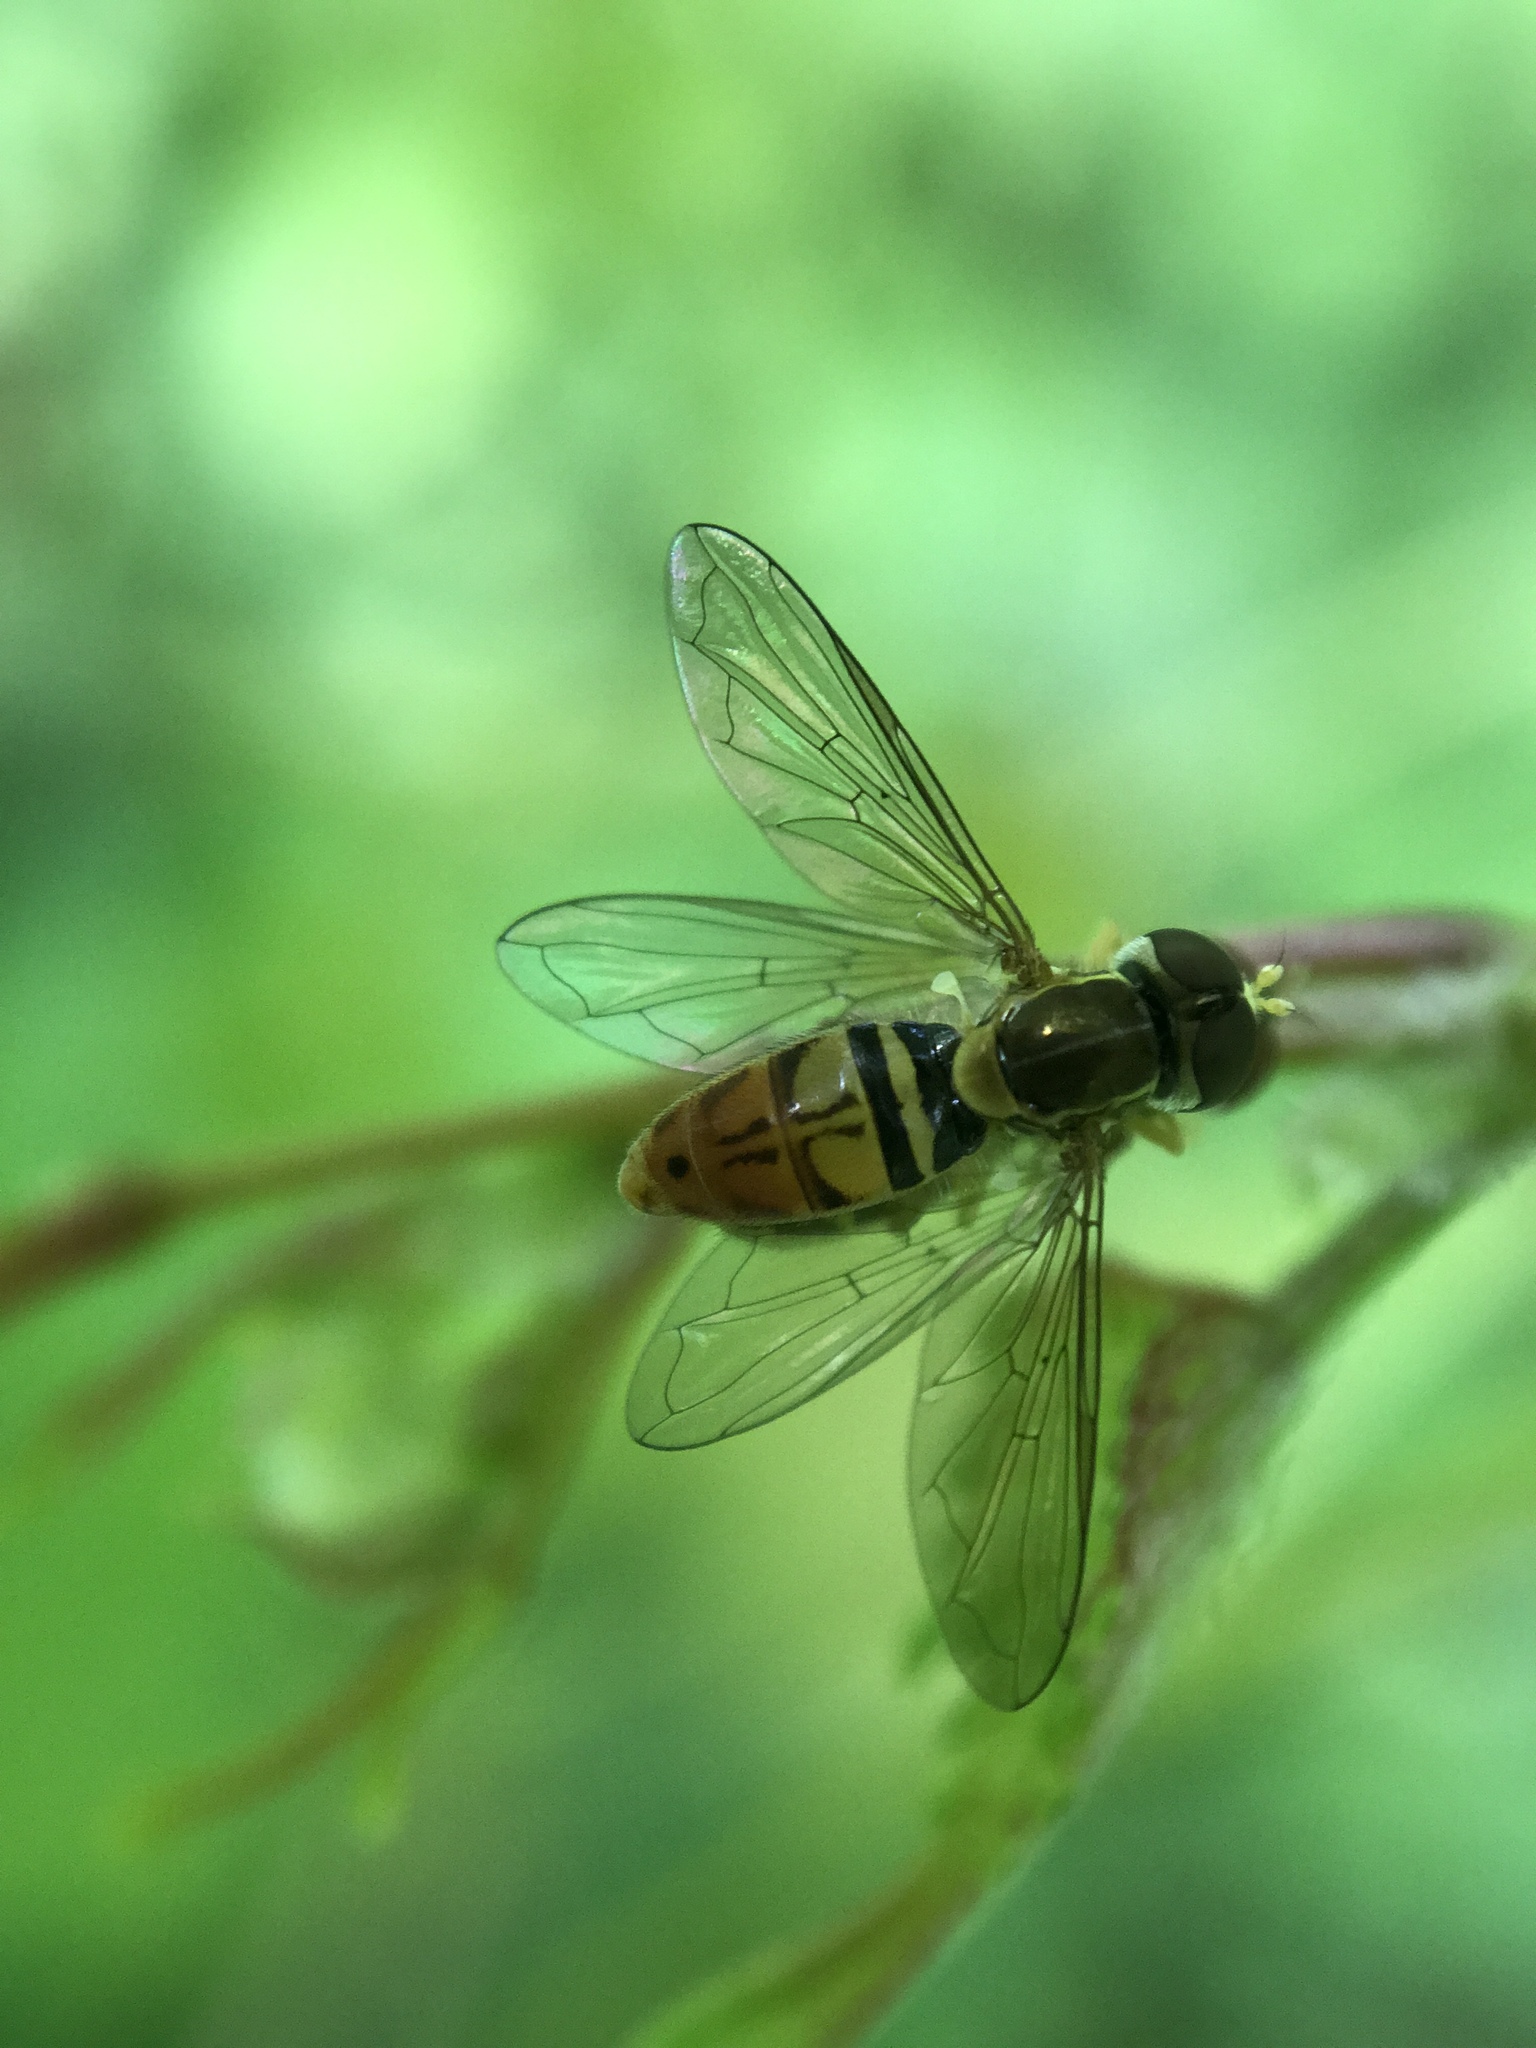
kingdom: Animalia
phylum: Arthropoda
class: Insecta
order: Diptera
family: Syrphidae
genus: Toxomerus
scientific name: Toxomerus marginatus
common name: Syrphid fly
